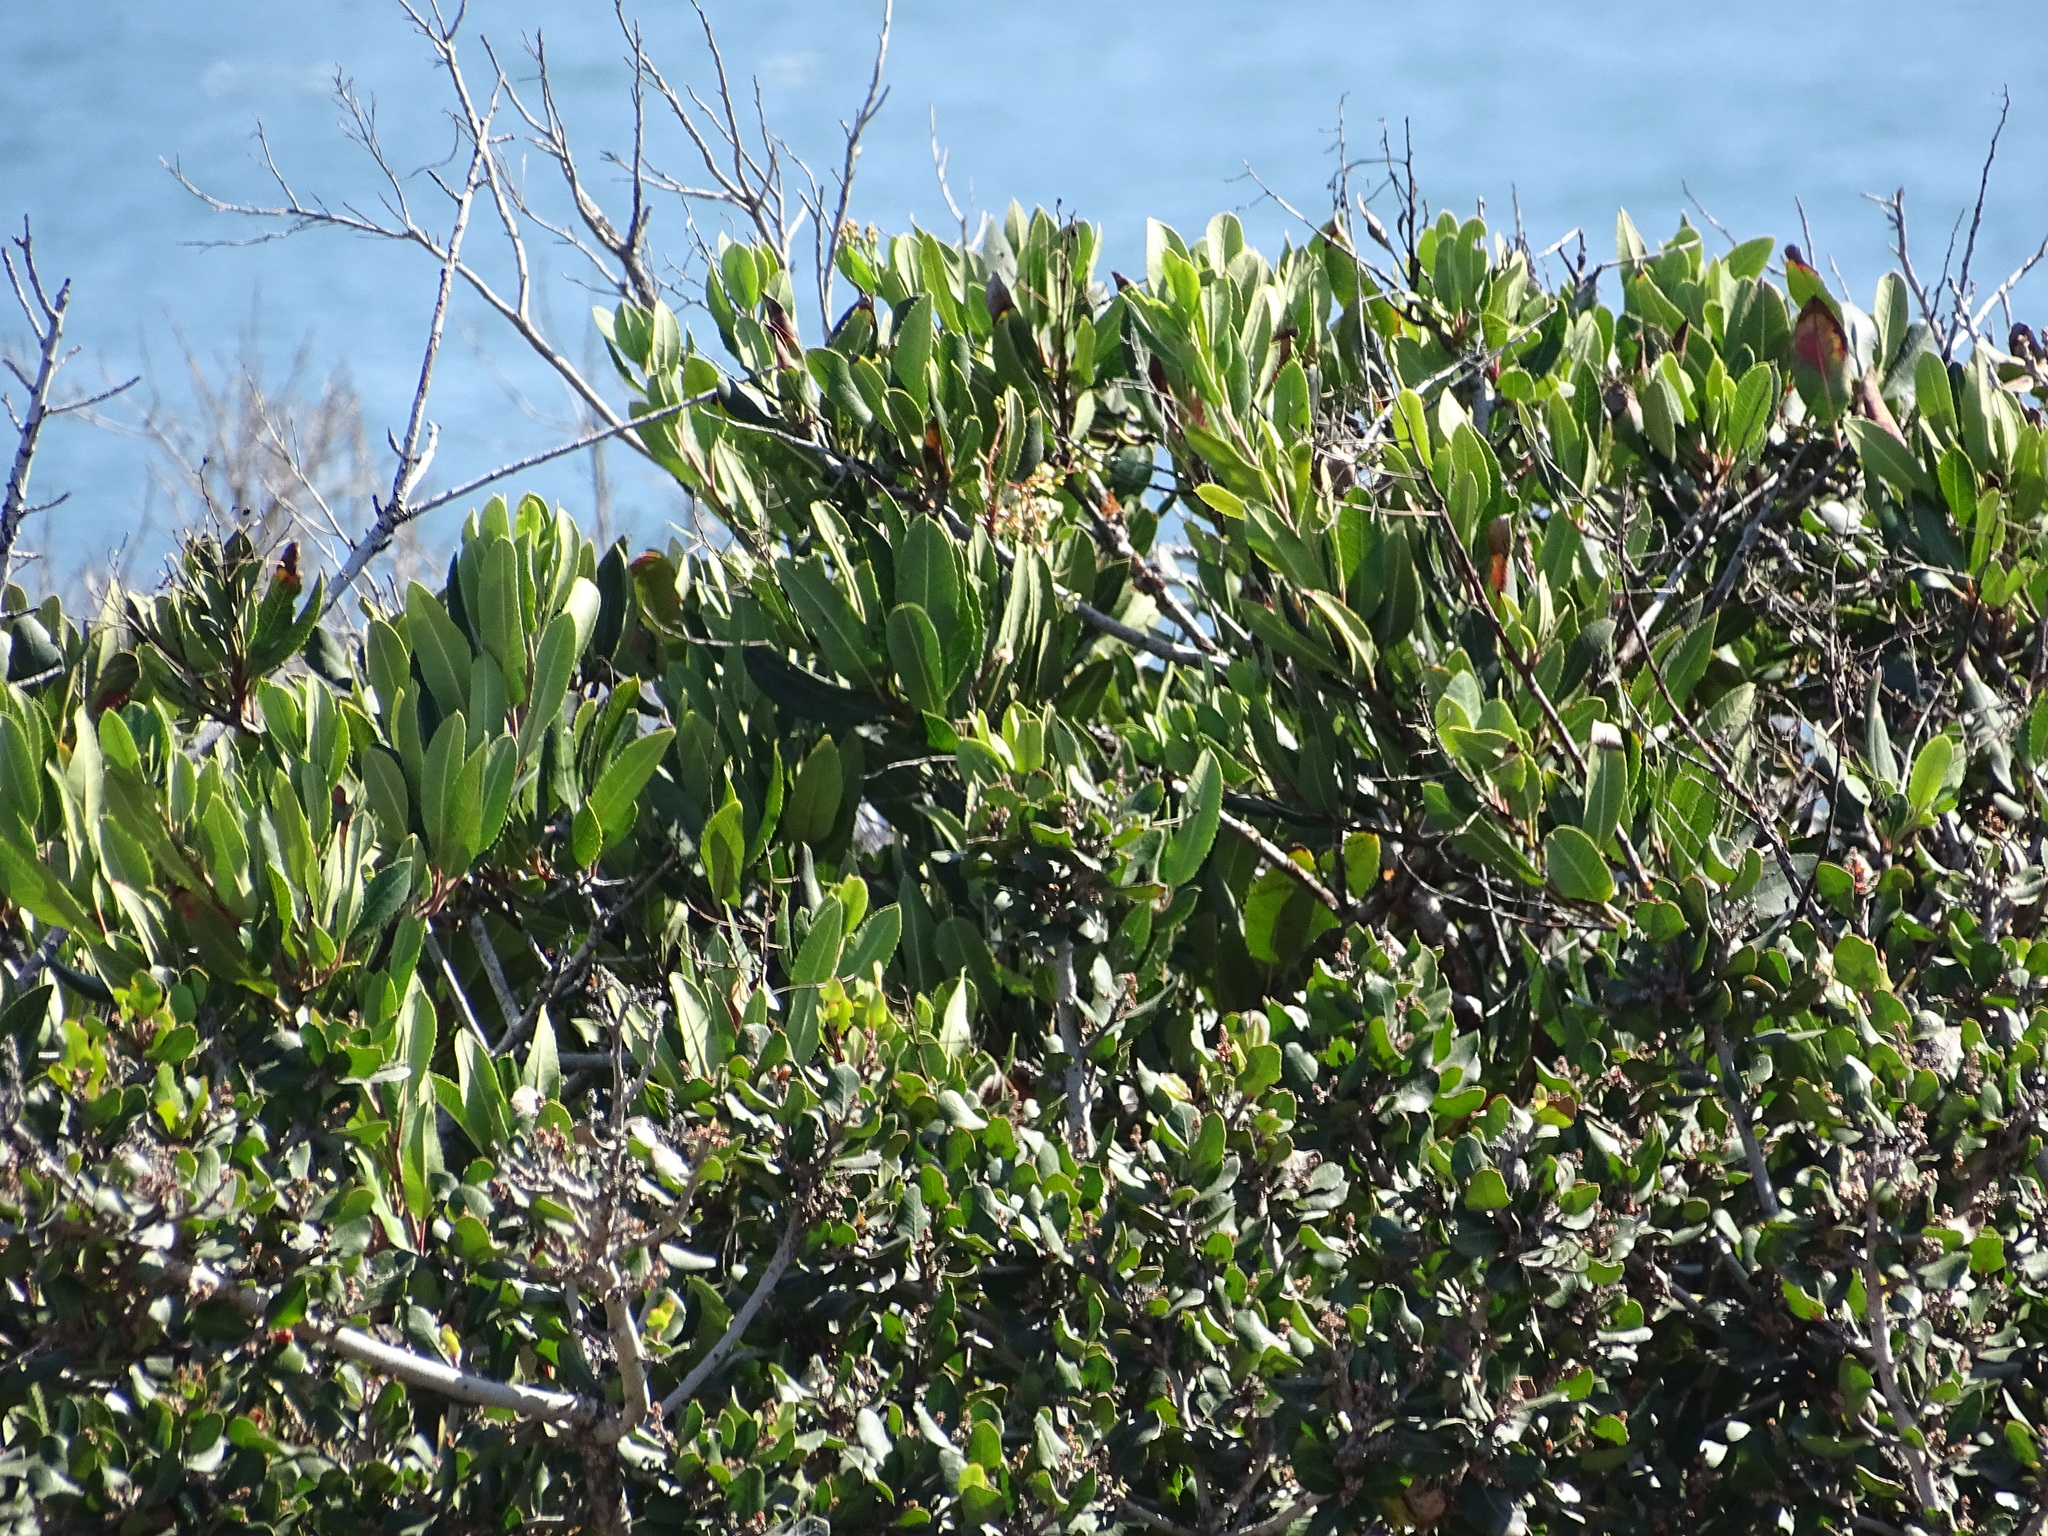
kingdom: Plantae
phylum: Tracheophyta
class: Magnoliopsida
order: Rosales
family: Rosaceae
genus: Heteromeles
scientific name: Heteromeles arbutifolia
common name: California-holly
